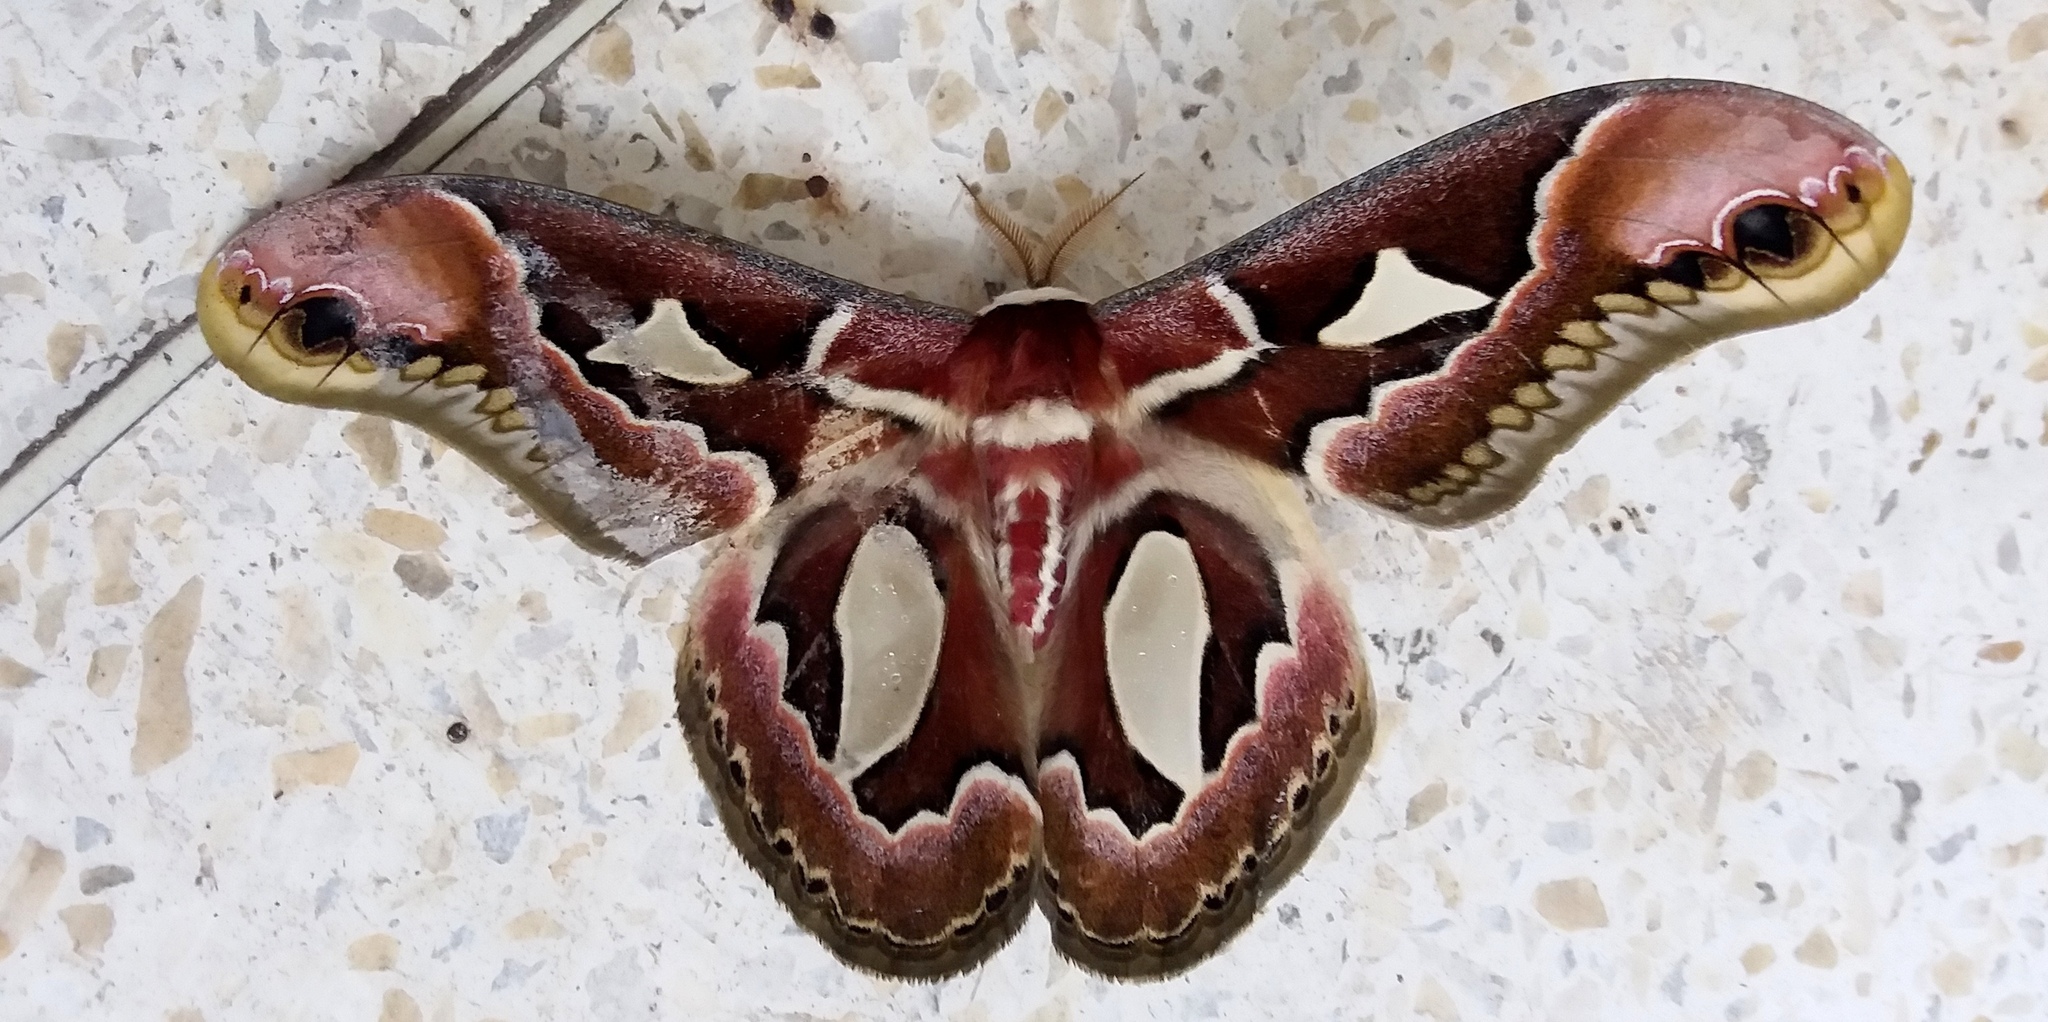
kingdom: Animalia
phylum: Arthropoda
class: Insecta
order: Lepidoptera
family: Saturniidae
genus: Rothschildia
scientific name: Rothschildia jacobaeae
